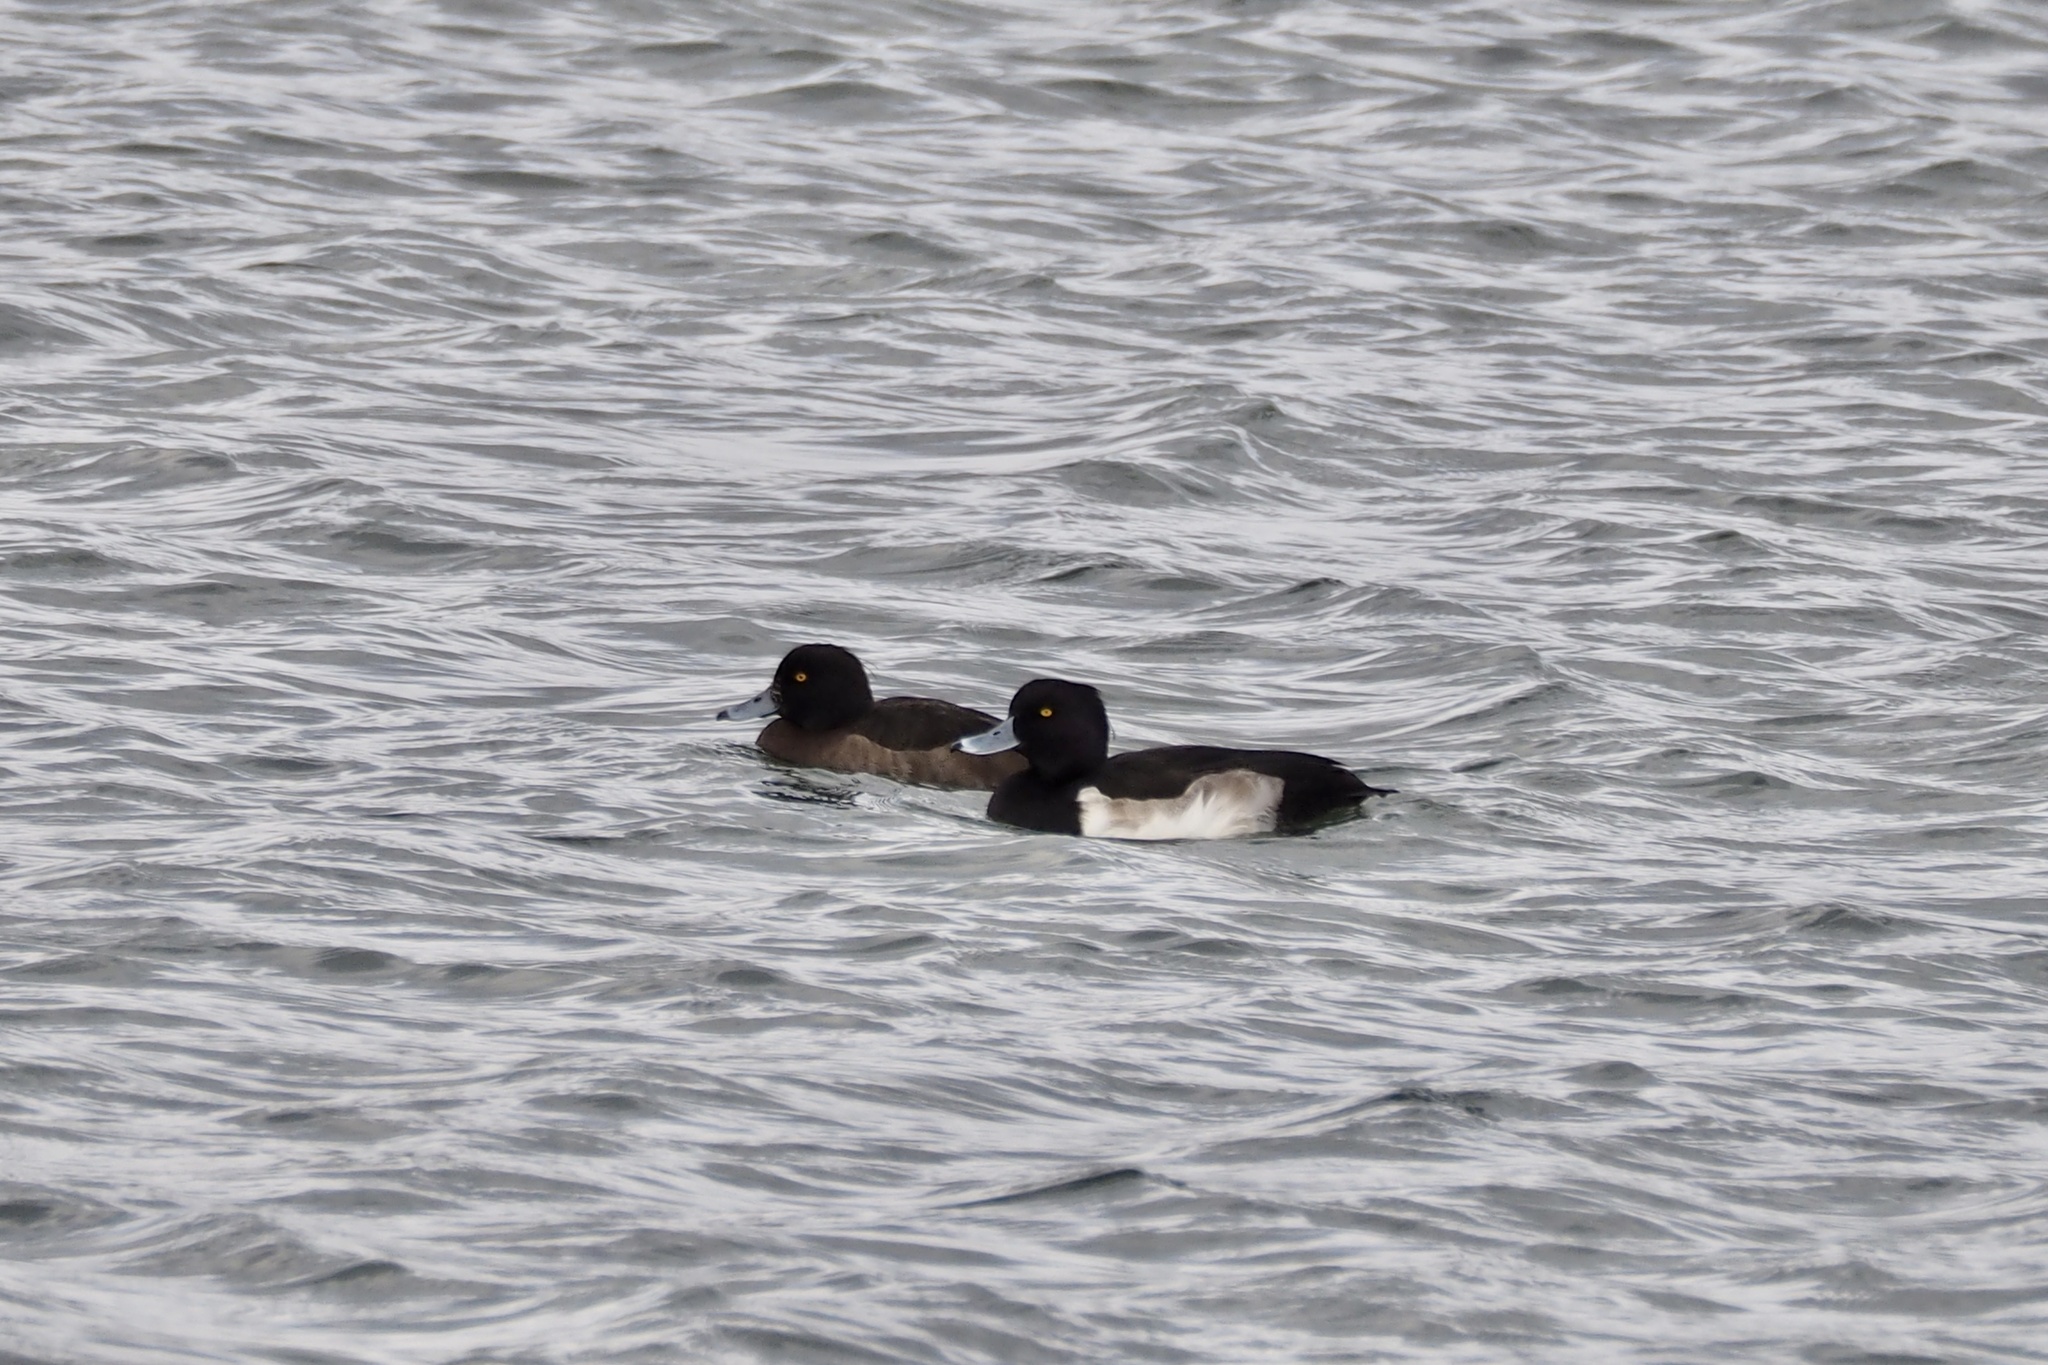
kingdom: Animalia
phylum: Chordata
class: Aves
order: Anseriformes
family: Anatidae
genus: Aythya
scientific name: Aythya fuligula
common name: Tufted duck
